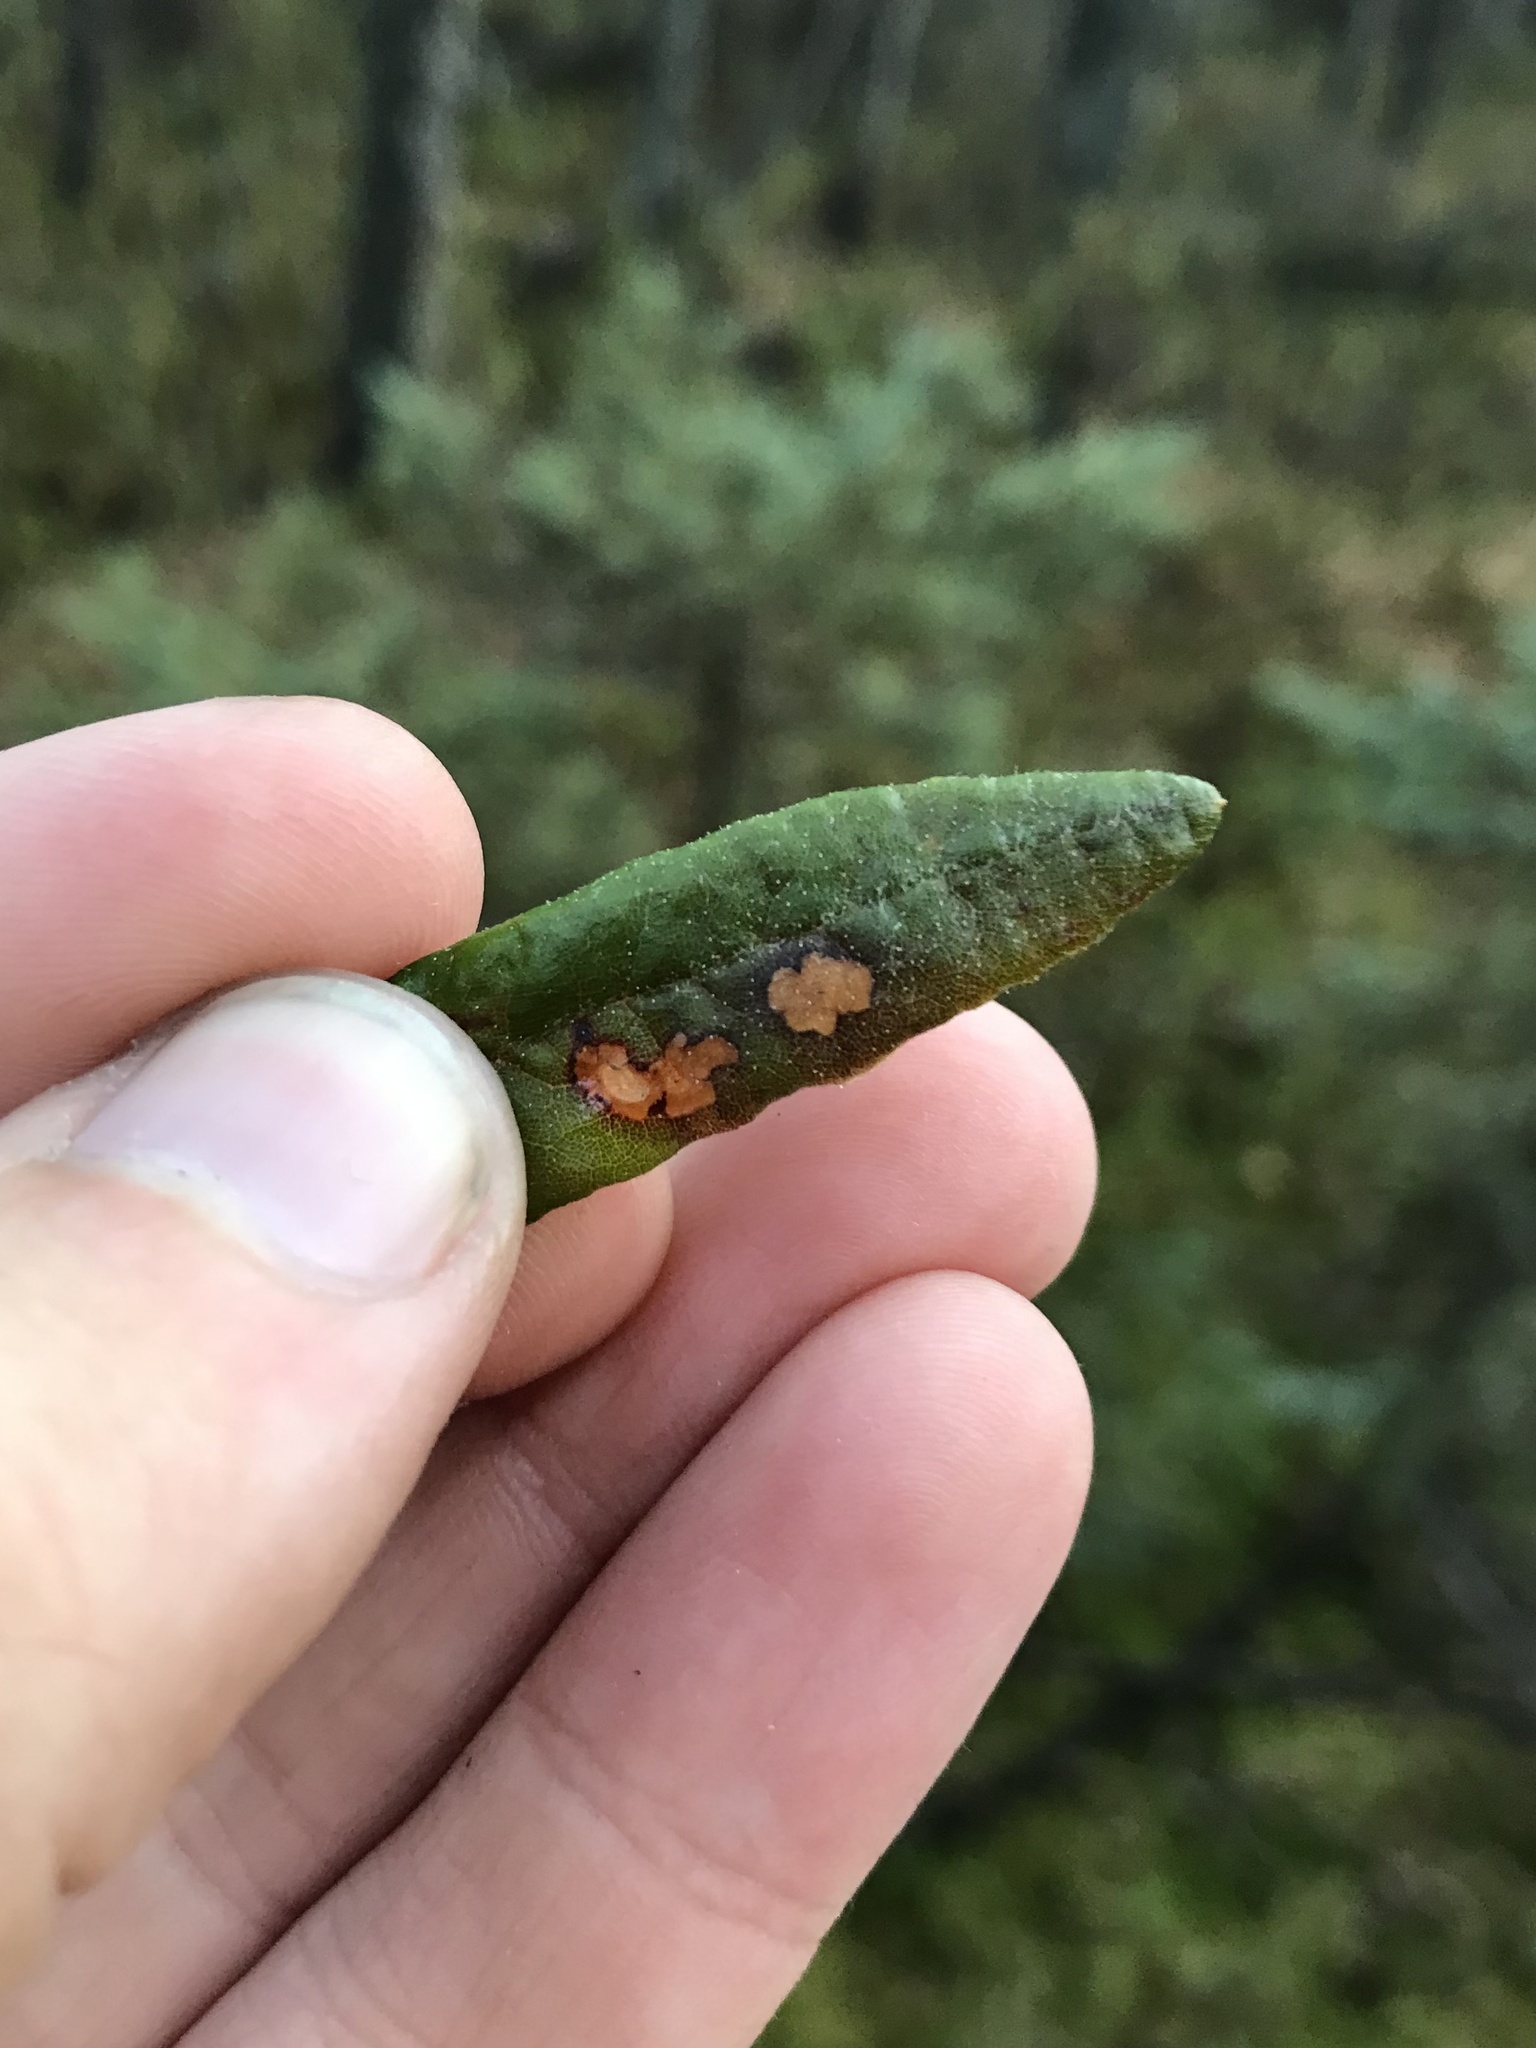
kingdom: Animalia
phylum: Arthropoda
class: Insecta
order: Lepidoptera
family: Coleophoridae
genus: Coleophora
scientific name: Coleophora ledi
